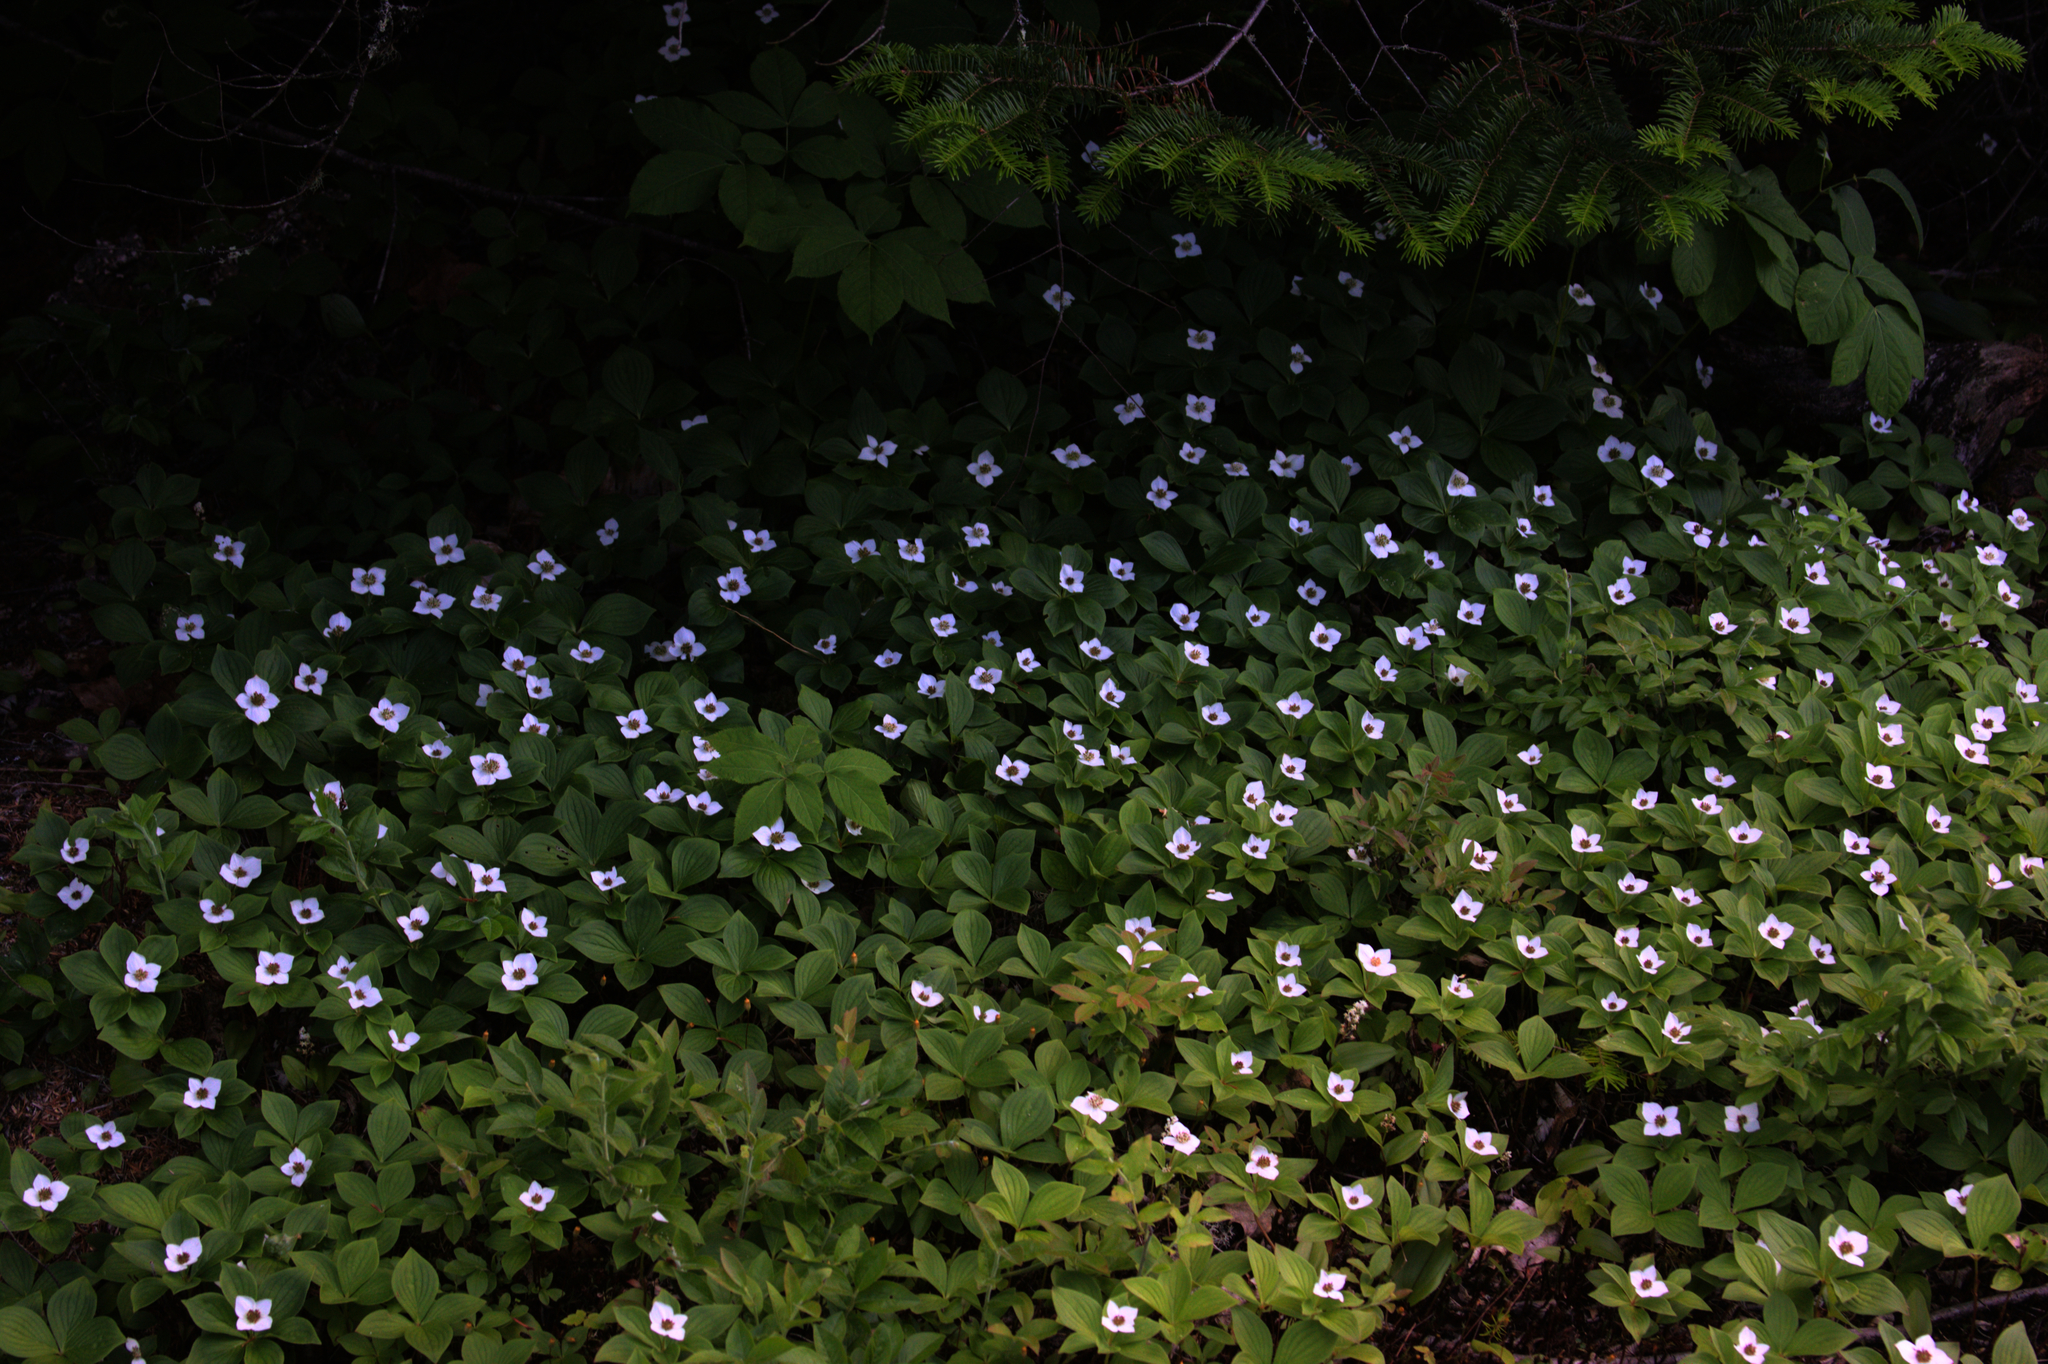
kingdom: Plantae
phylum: Tracheophyta
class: Magnoliopsida
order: Apiales
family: Araliaceae
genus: Aralia
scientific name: Aralia nudicaulis
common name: Wild sarsaparilla
